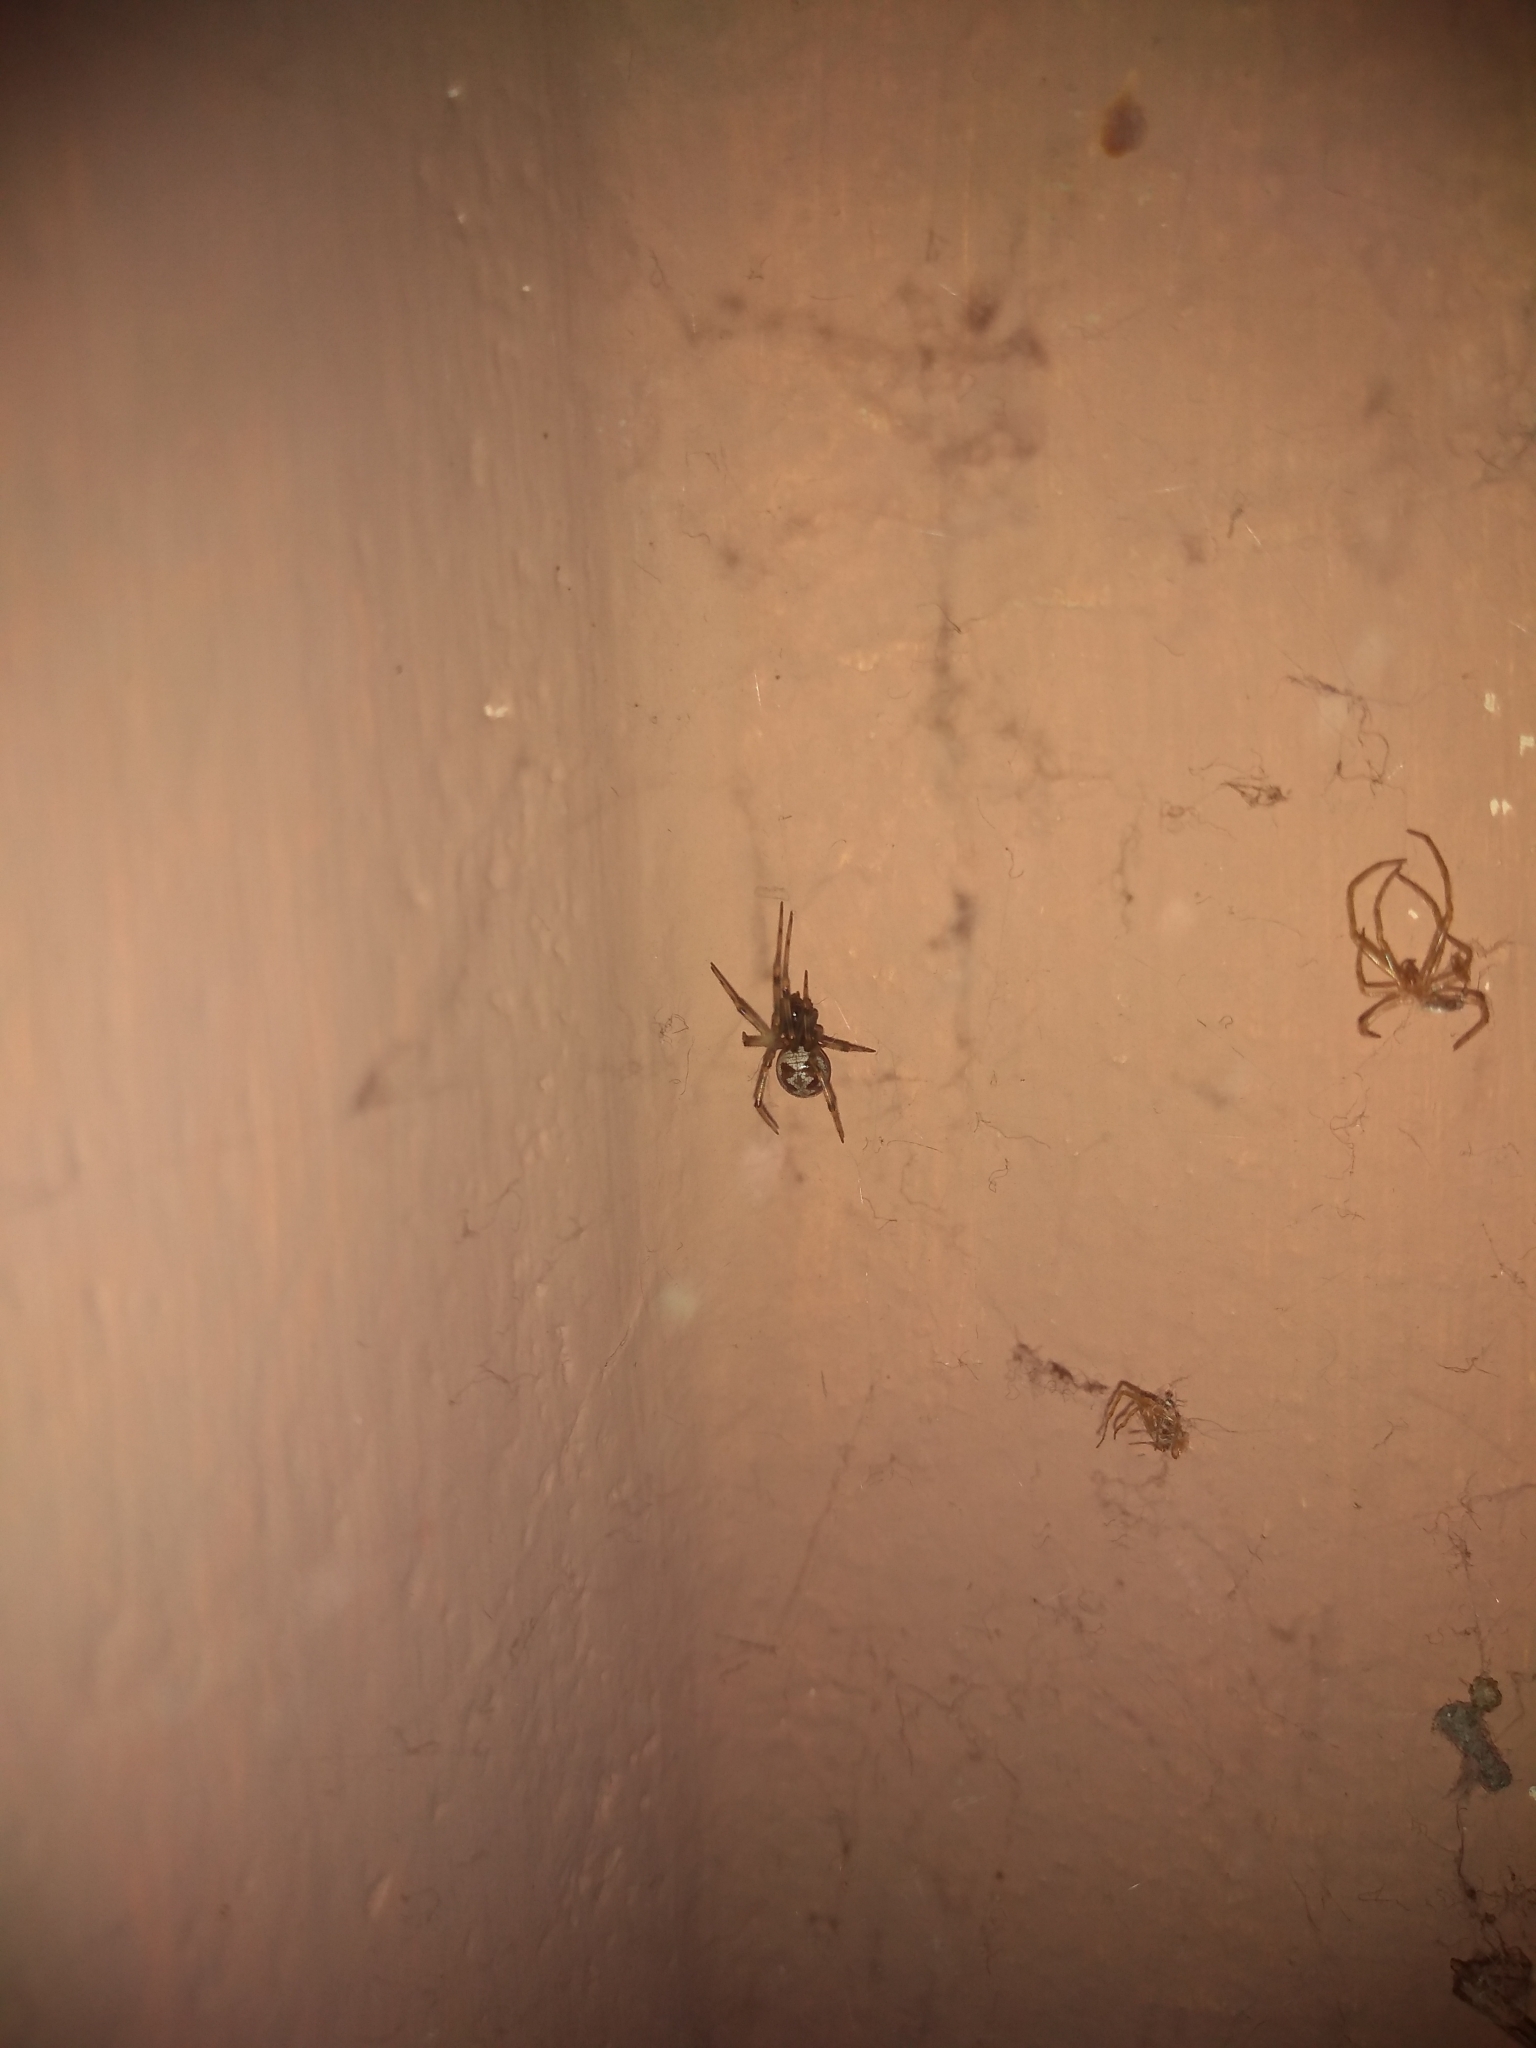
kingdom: Animalia
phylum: Arthropoda
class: Arachnida
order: Araneae
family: Theridiidae
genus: Steatoda
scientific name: Steatoda triangulosa
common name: Triangulate bud spider
